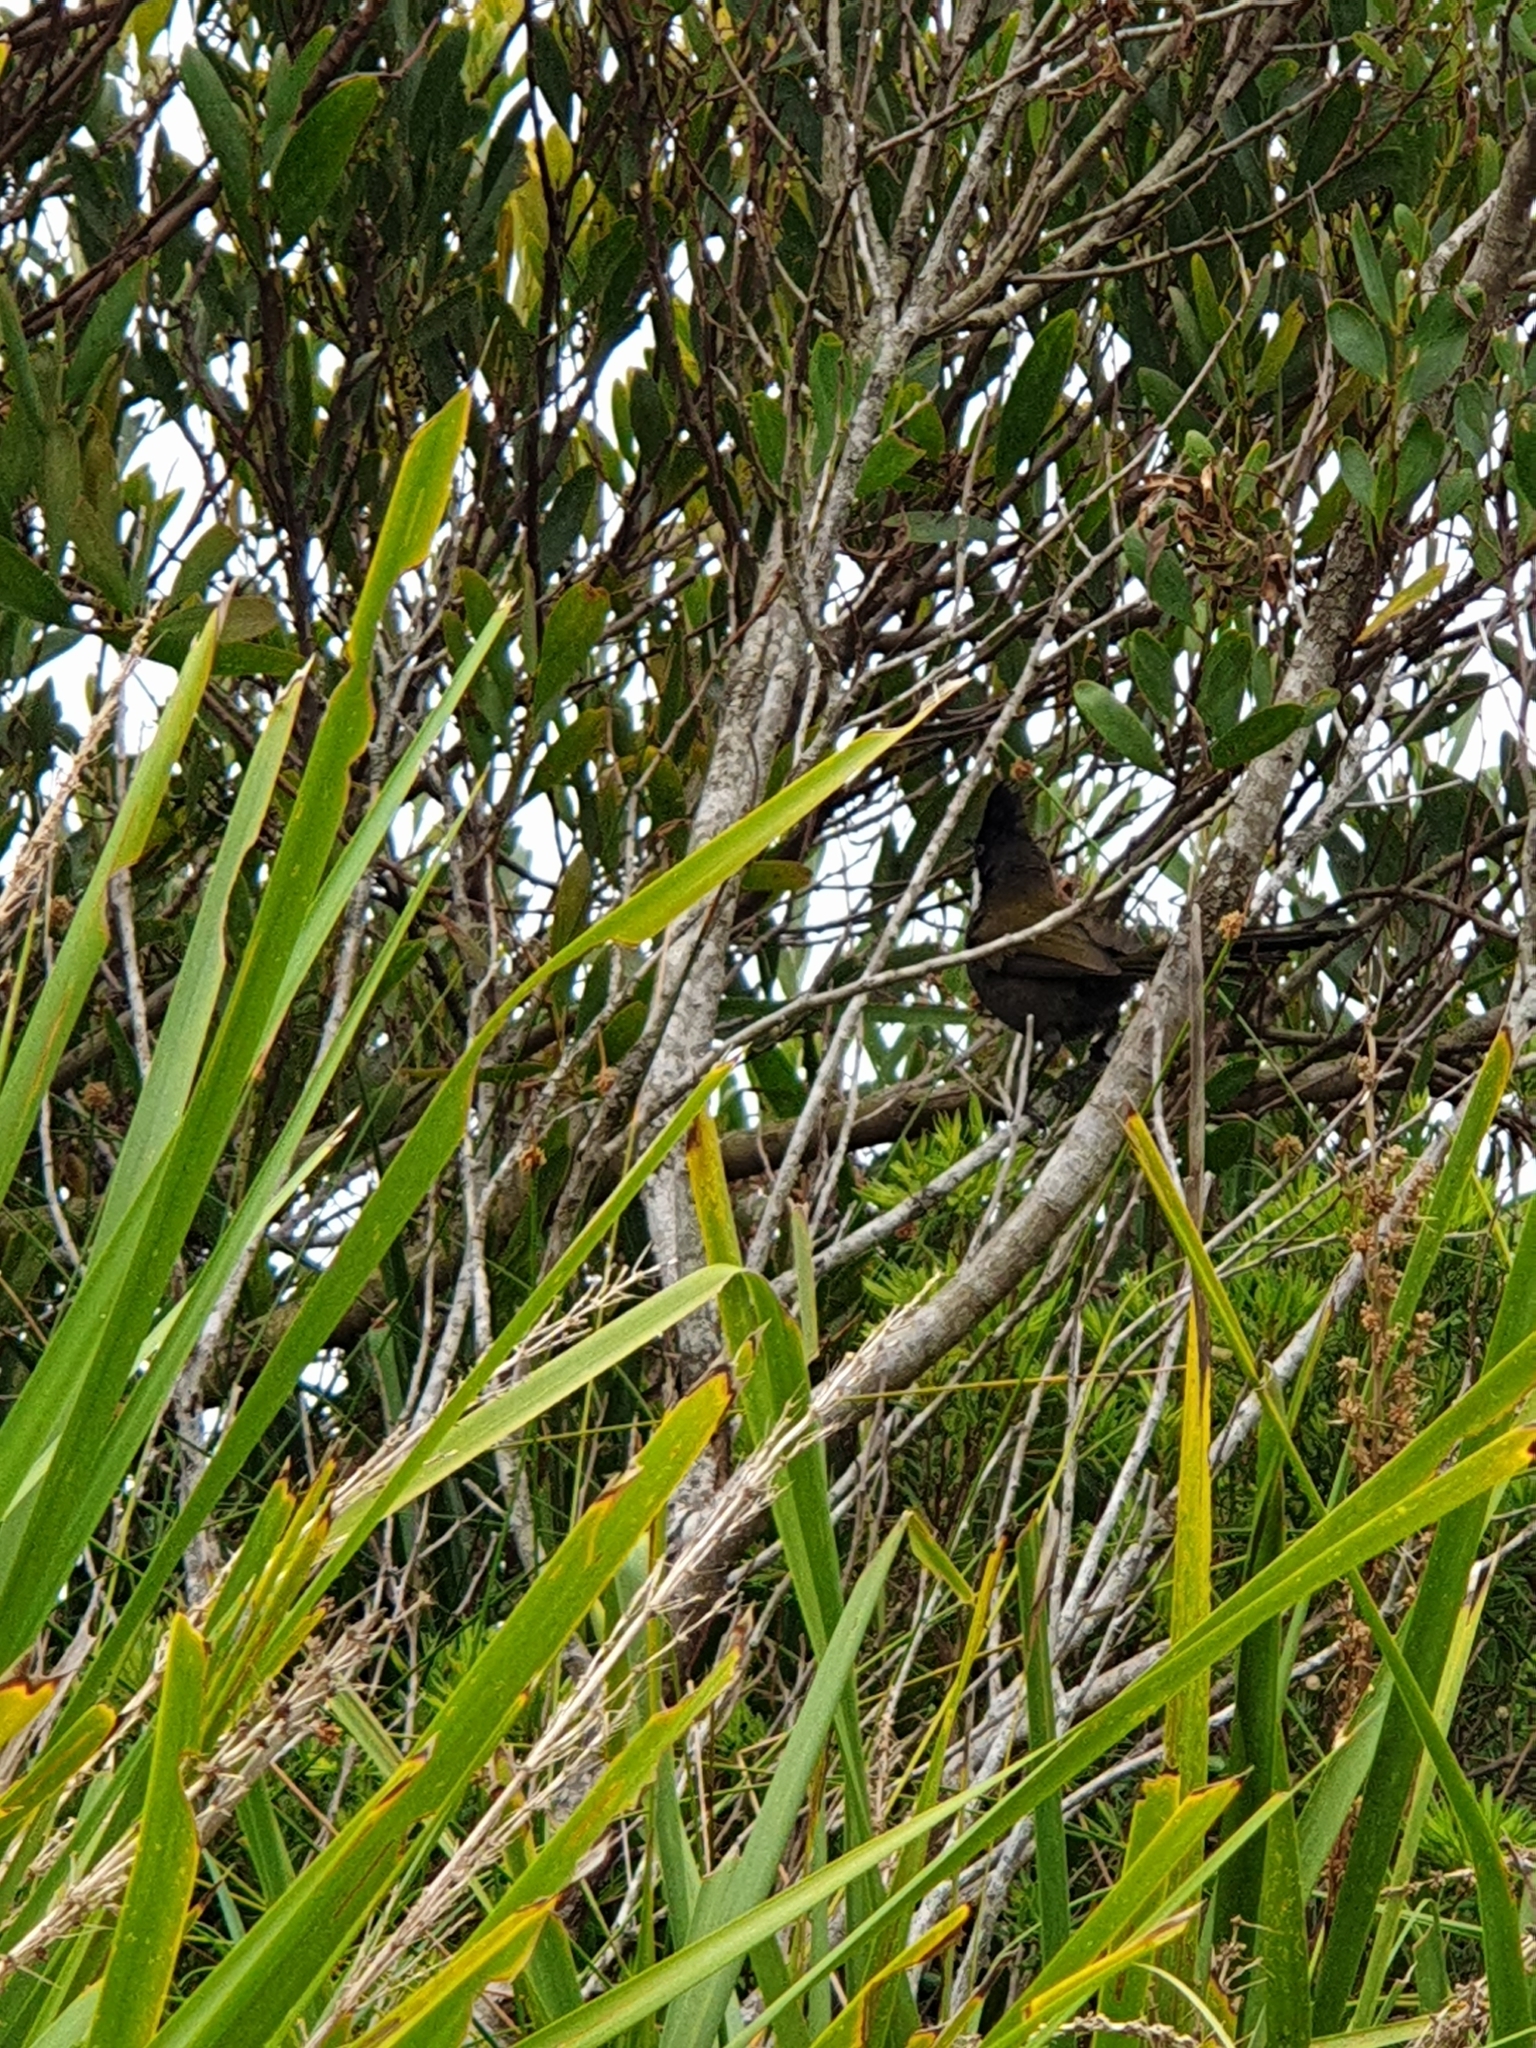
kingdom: Animalia
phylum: Chordata
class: Aves
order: Passeriformes
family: Psophodidae
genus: Psophodes
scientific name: Psophodes olivaceus
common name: Eastern whipbird
